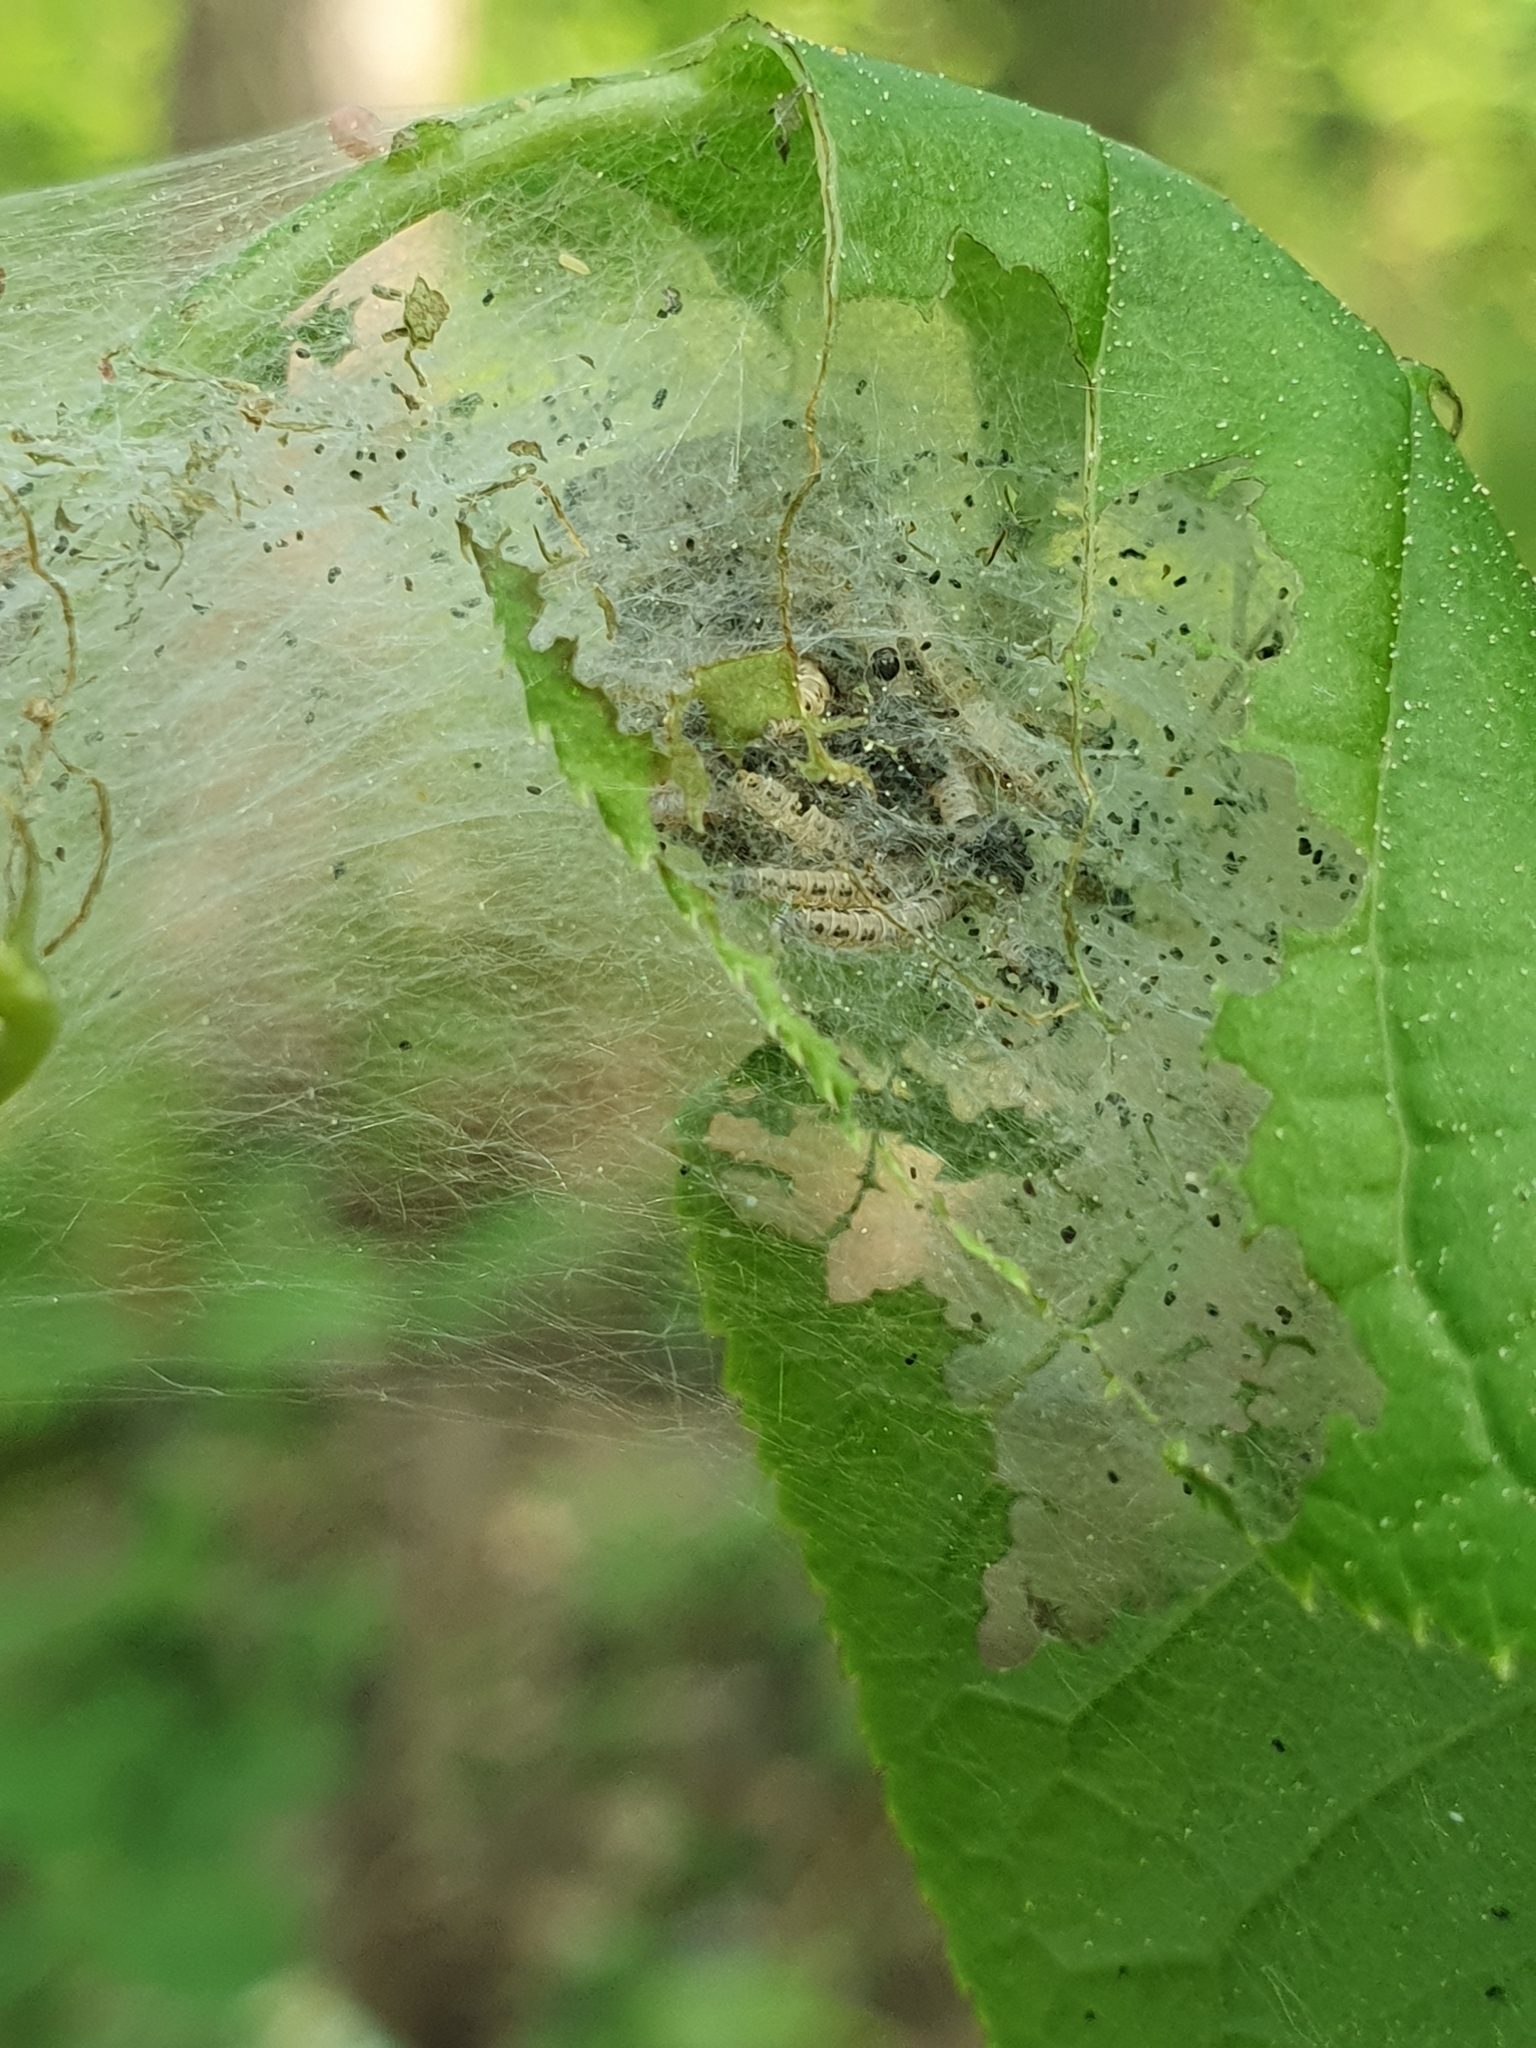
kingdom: Animalia
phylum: Arthropoda
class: Insecta
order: Lepidoptera
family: Yponomeutidae
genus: Yponomeuta
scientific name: Yponomeuta evonymella
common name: Bird-cherry ermine
